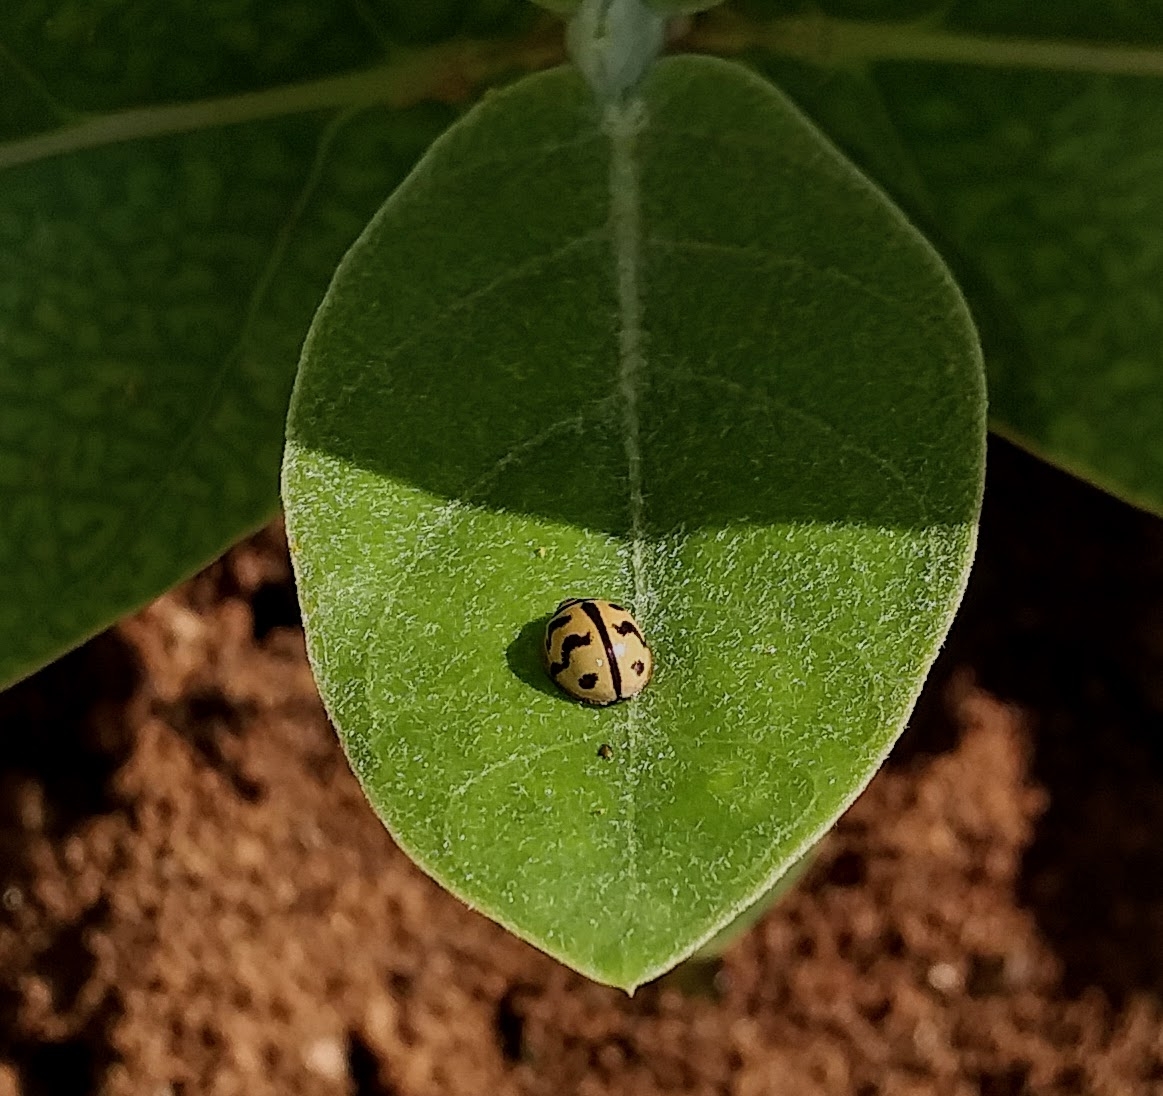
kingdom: Animalia
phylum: Arthropoda
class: Insecta
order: Coleoptera
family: Coccinellidae
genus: Cheilomenes
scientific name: Cheilomenes sexmaculata
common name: Ladybird beetle
